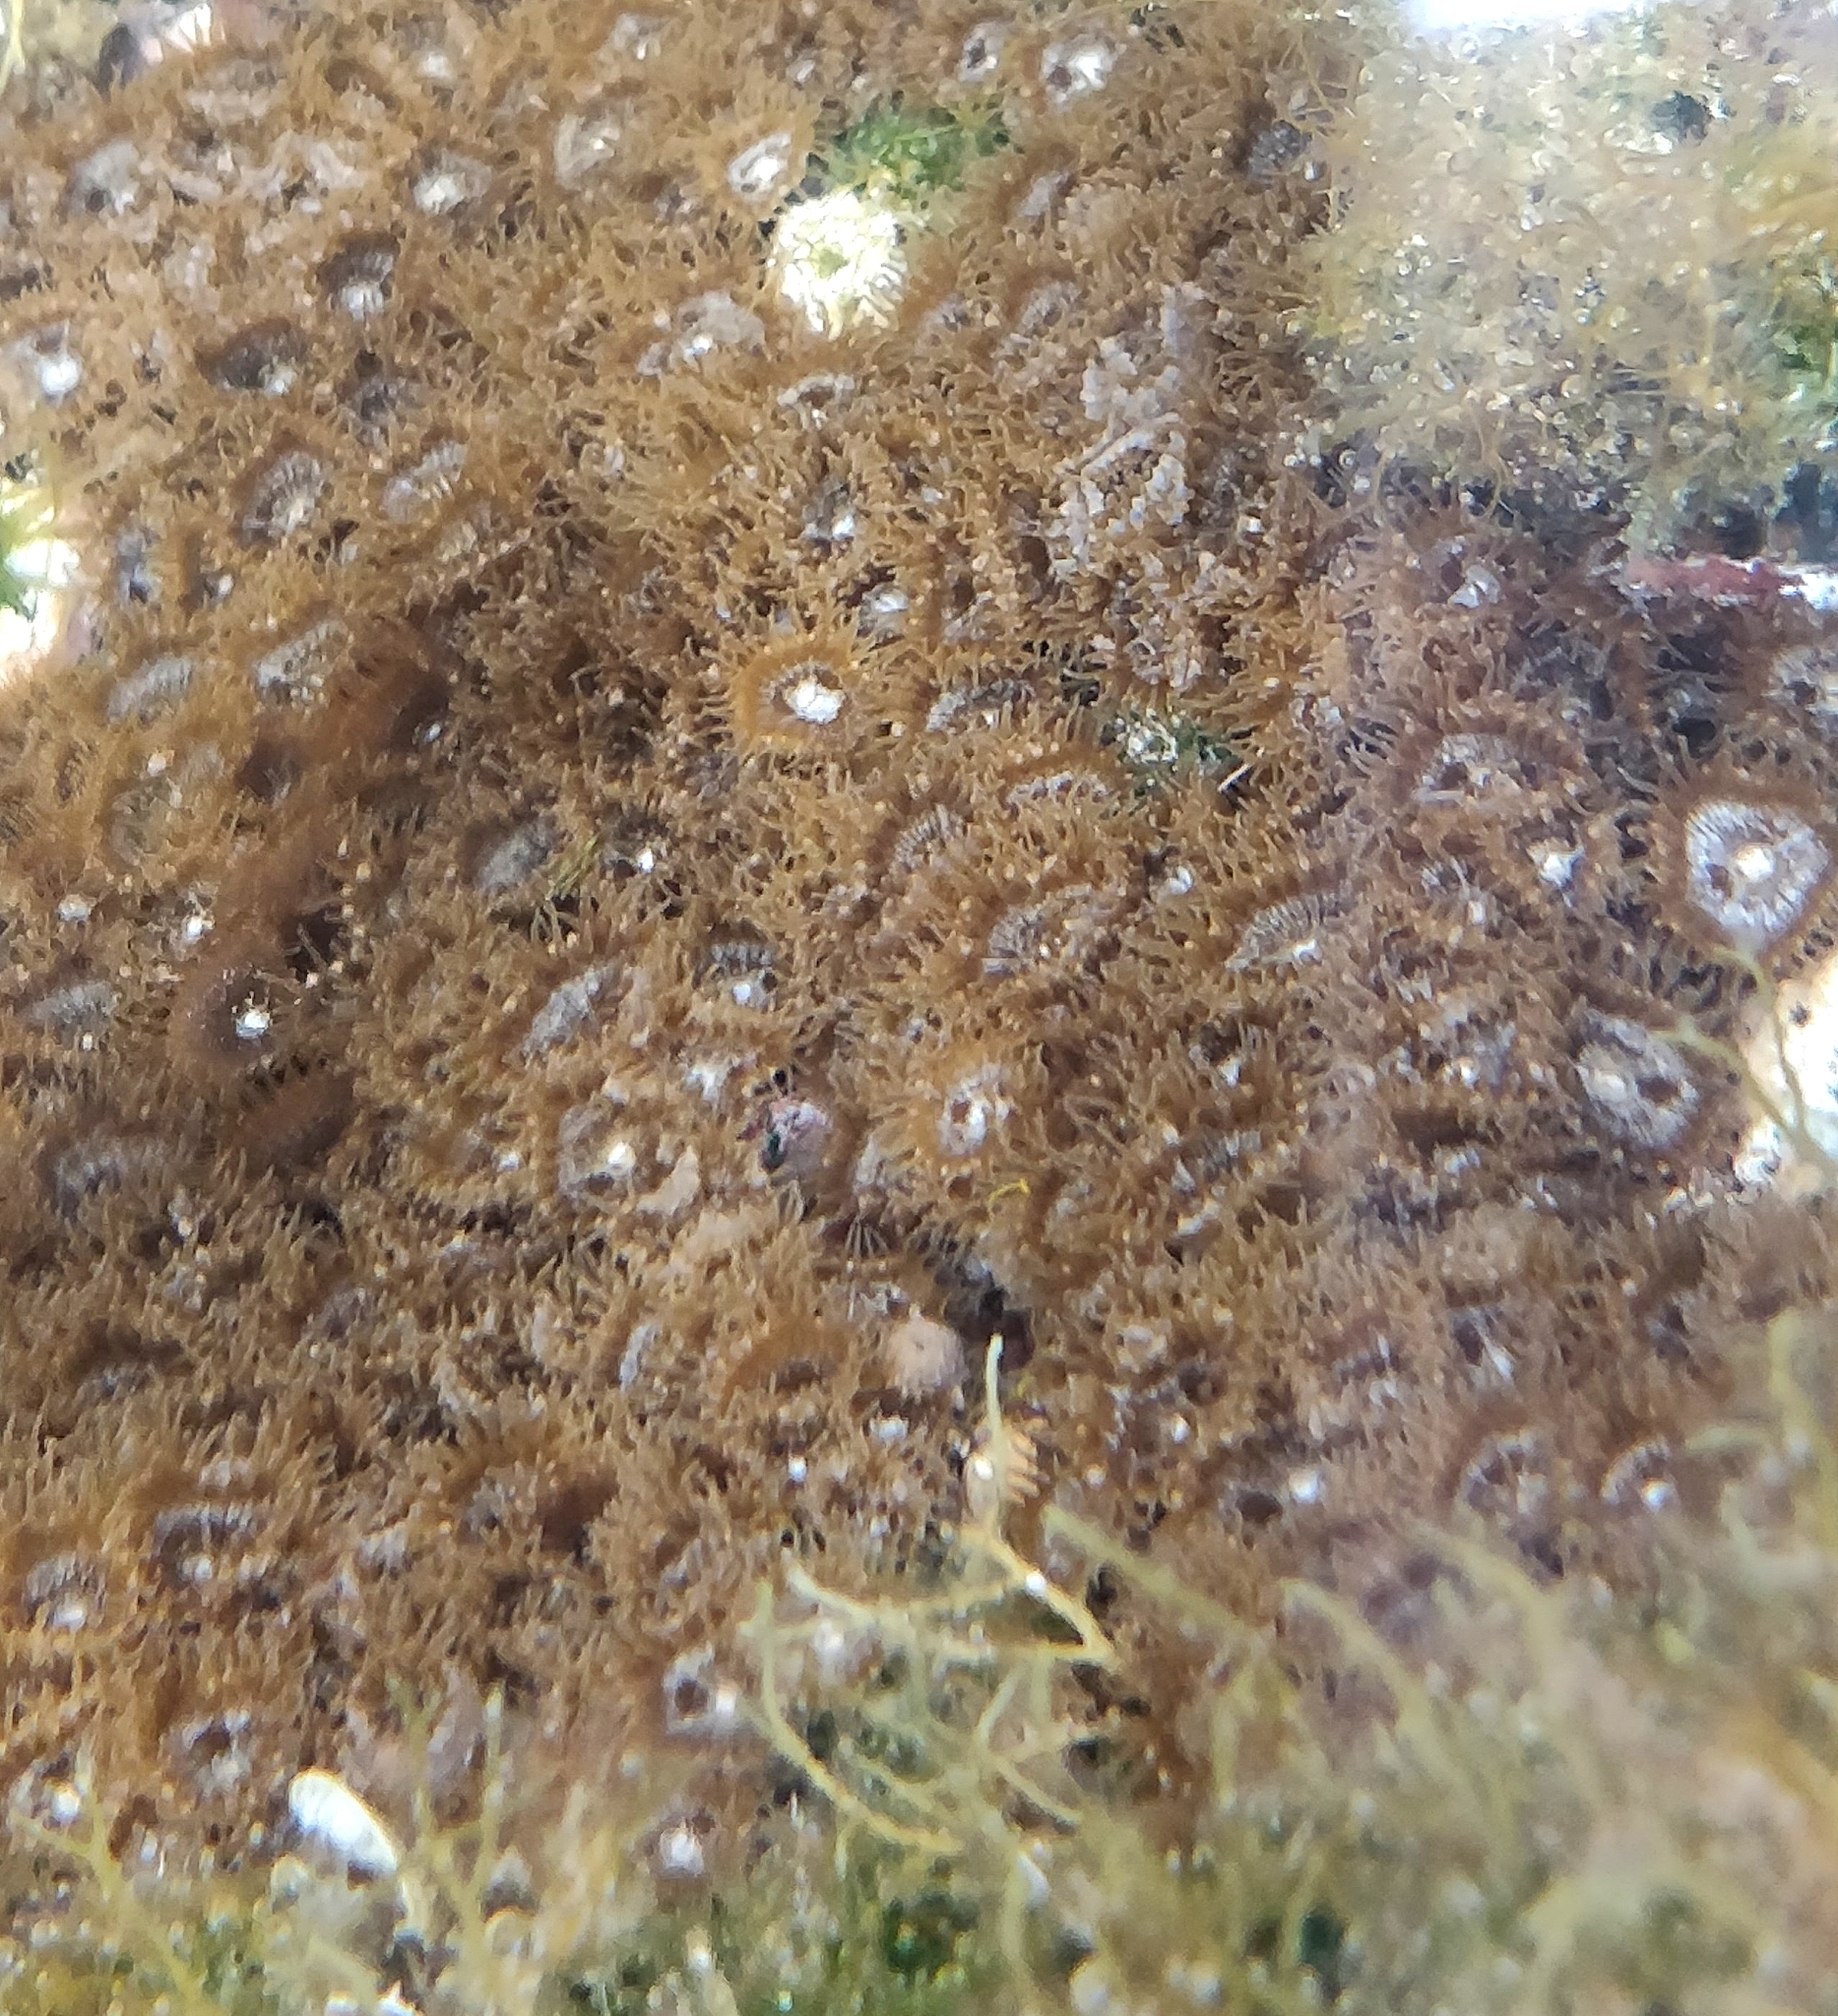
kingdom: Animalia
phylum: Cnidaria
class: Anthozoa
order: Zoantharia
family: Sphenopidae
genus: Palythoa
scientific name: Palythoa grandiflora
